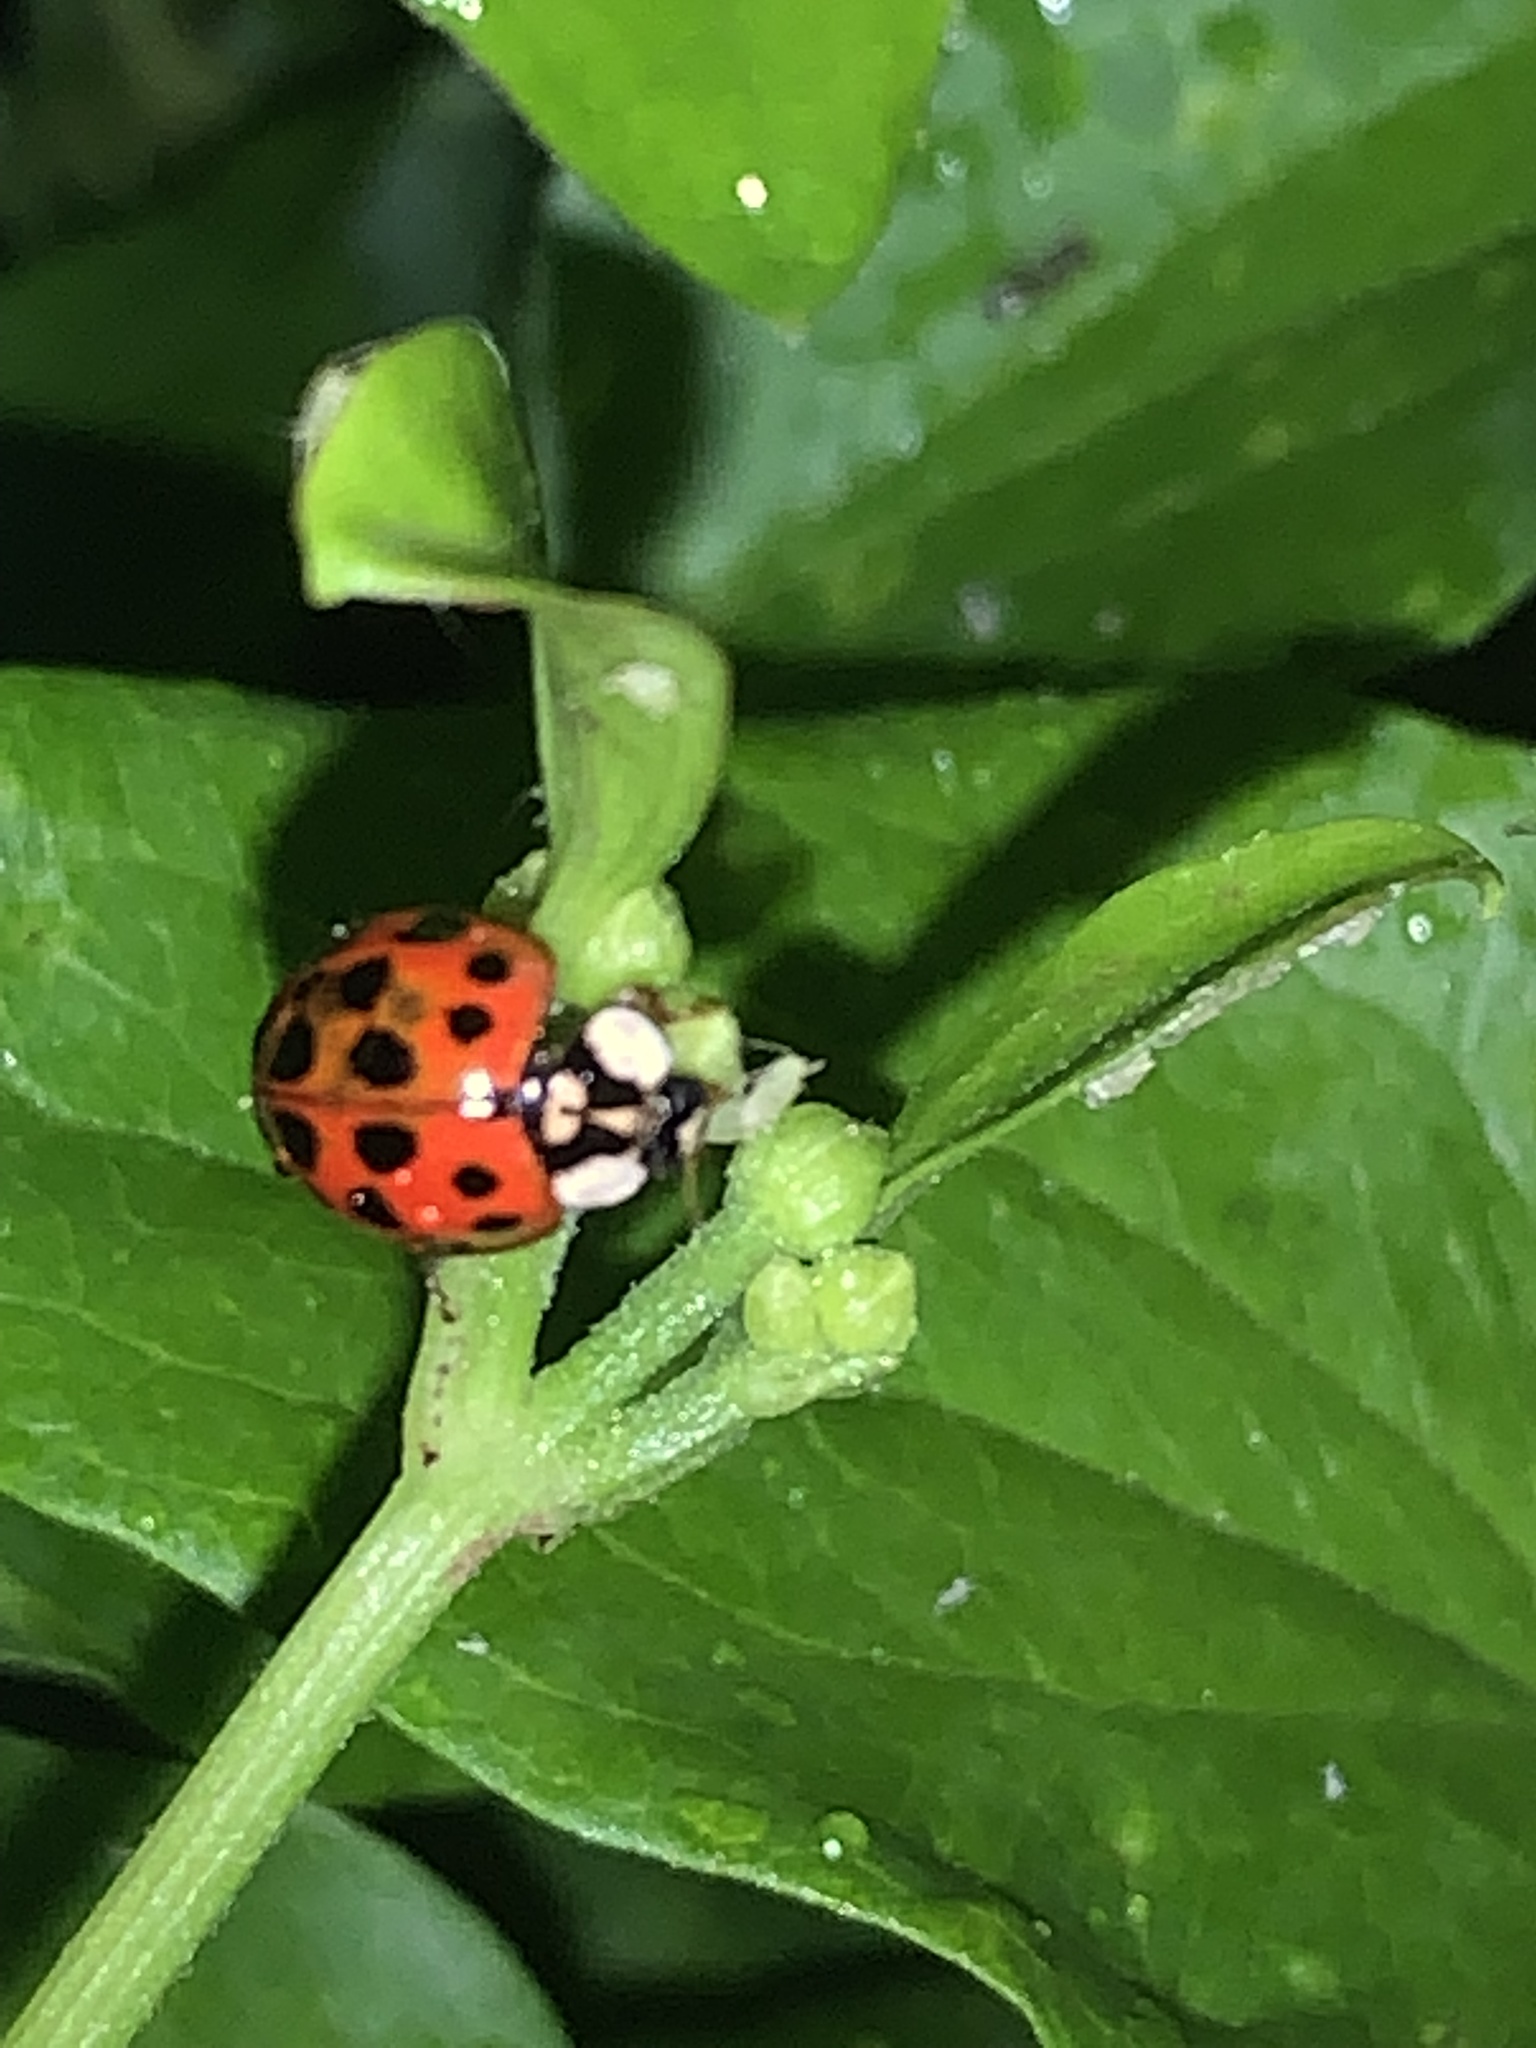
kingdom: Animalia
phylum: Arthropoda
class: Insecta
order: Coleoptera
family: Coccinellidae
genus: Harmonia
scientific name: Harmonia axyridis
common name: Harlequin ladybird
